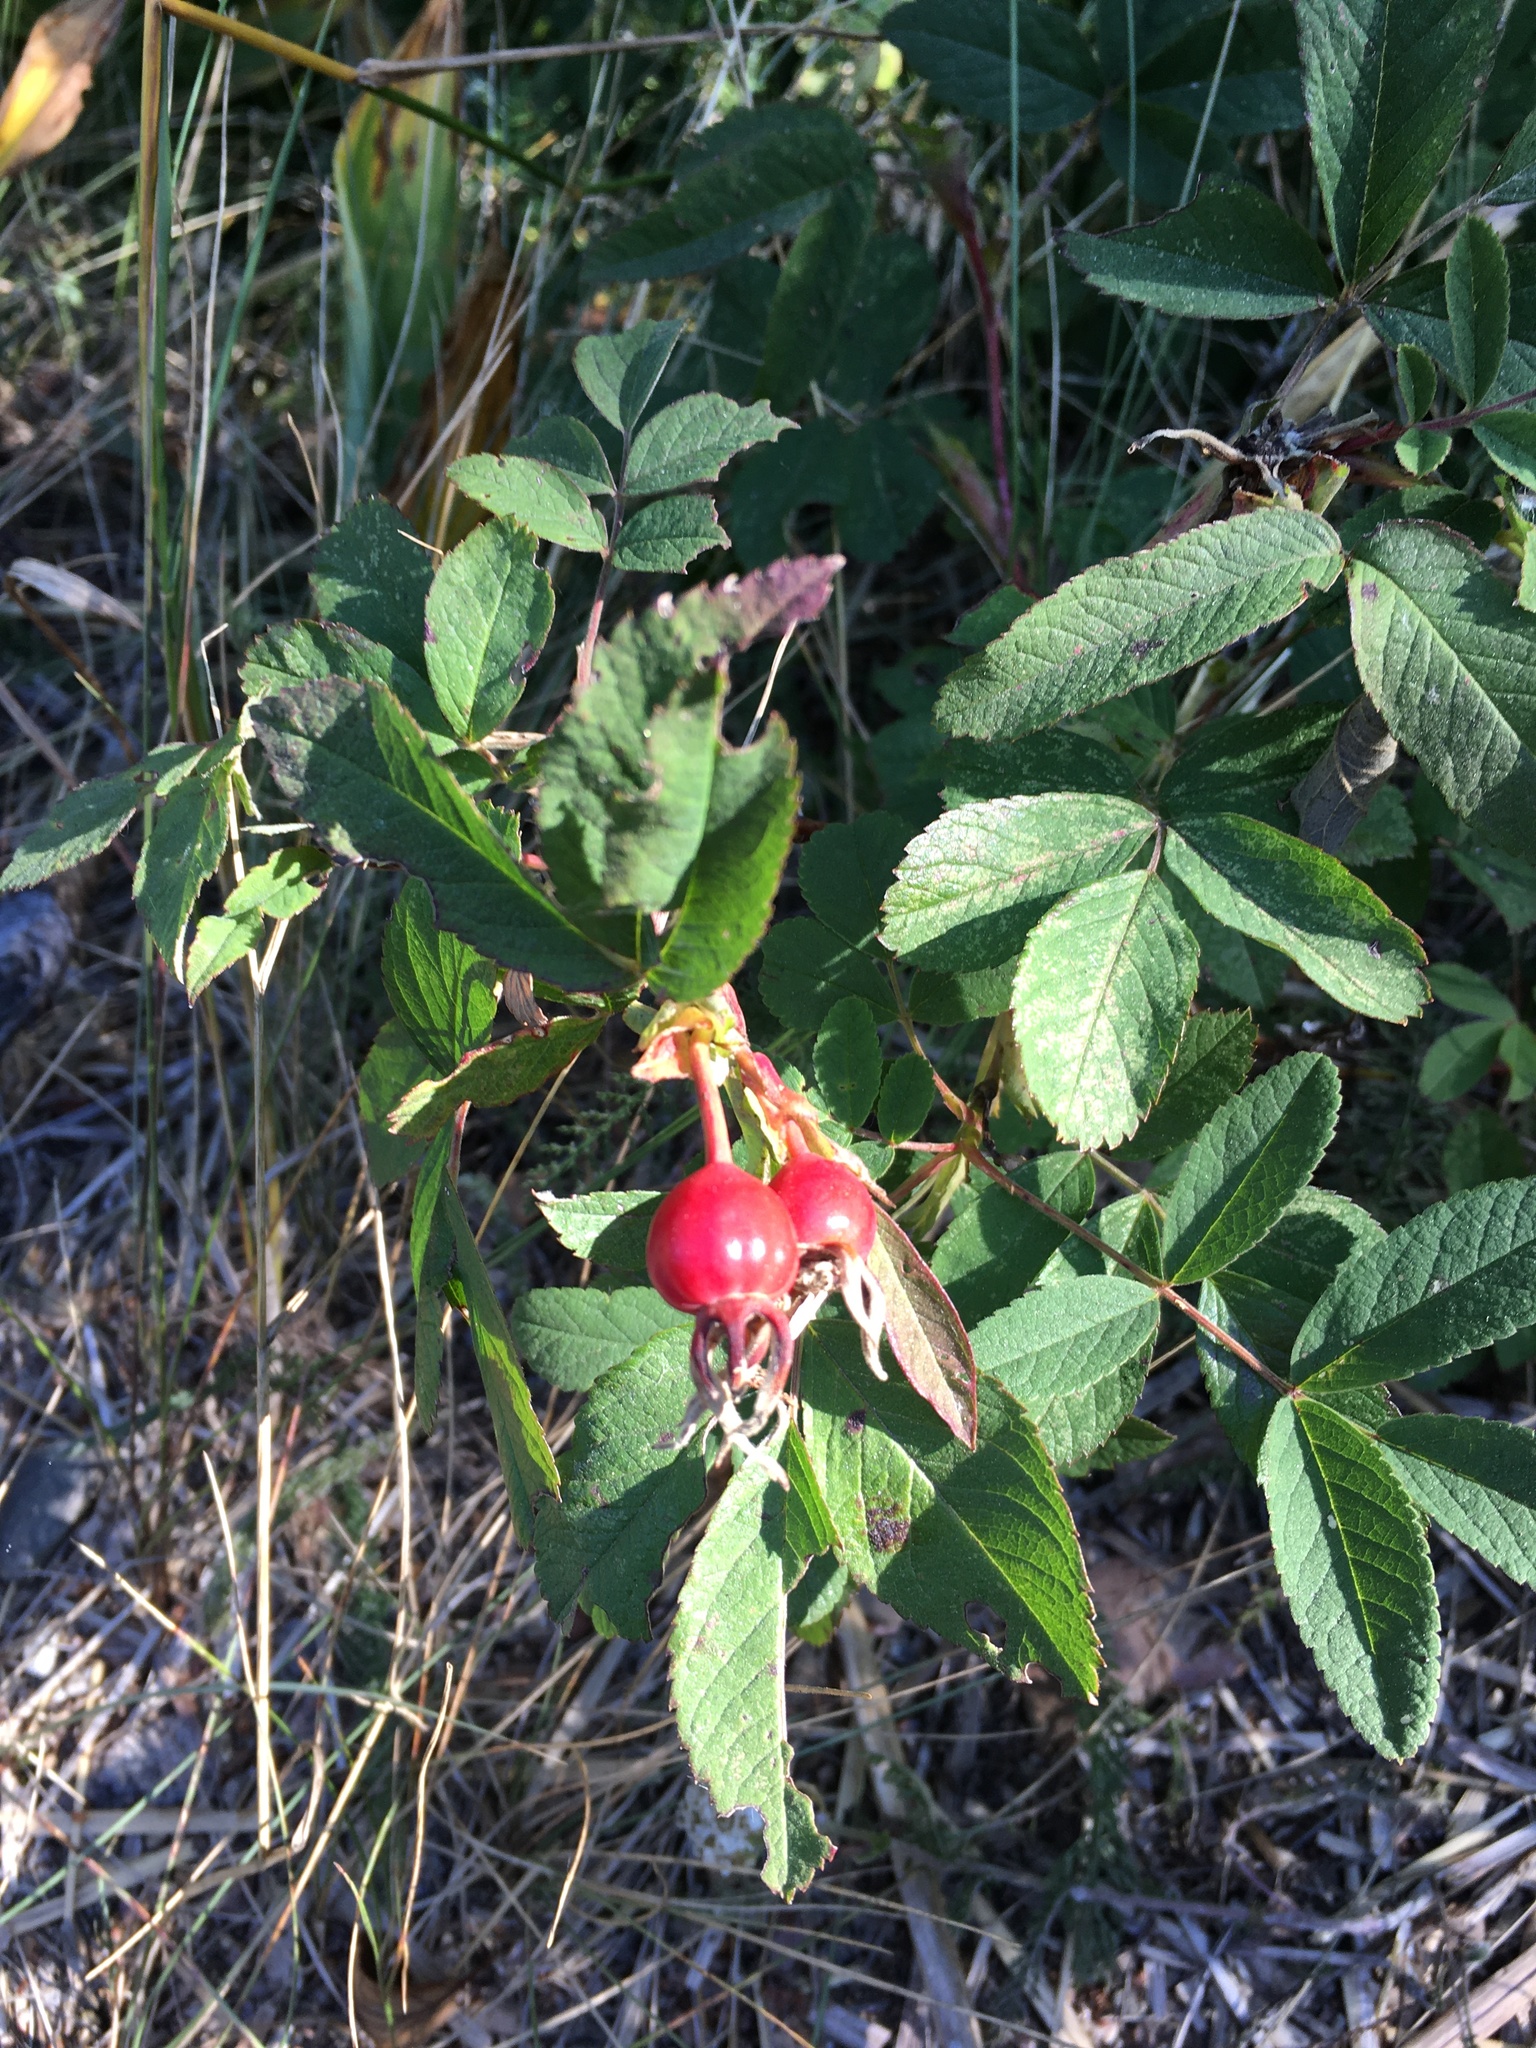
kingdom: Plantae
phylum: Tracheophyta
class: Magnoliopsida
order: Rosales
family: Rosaceae
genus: Rosa
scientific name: Rosa
